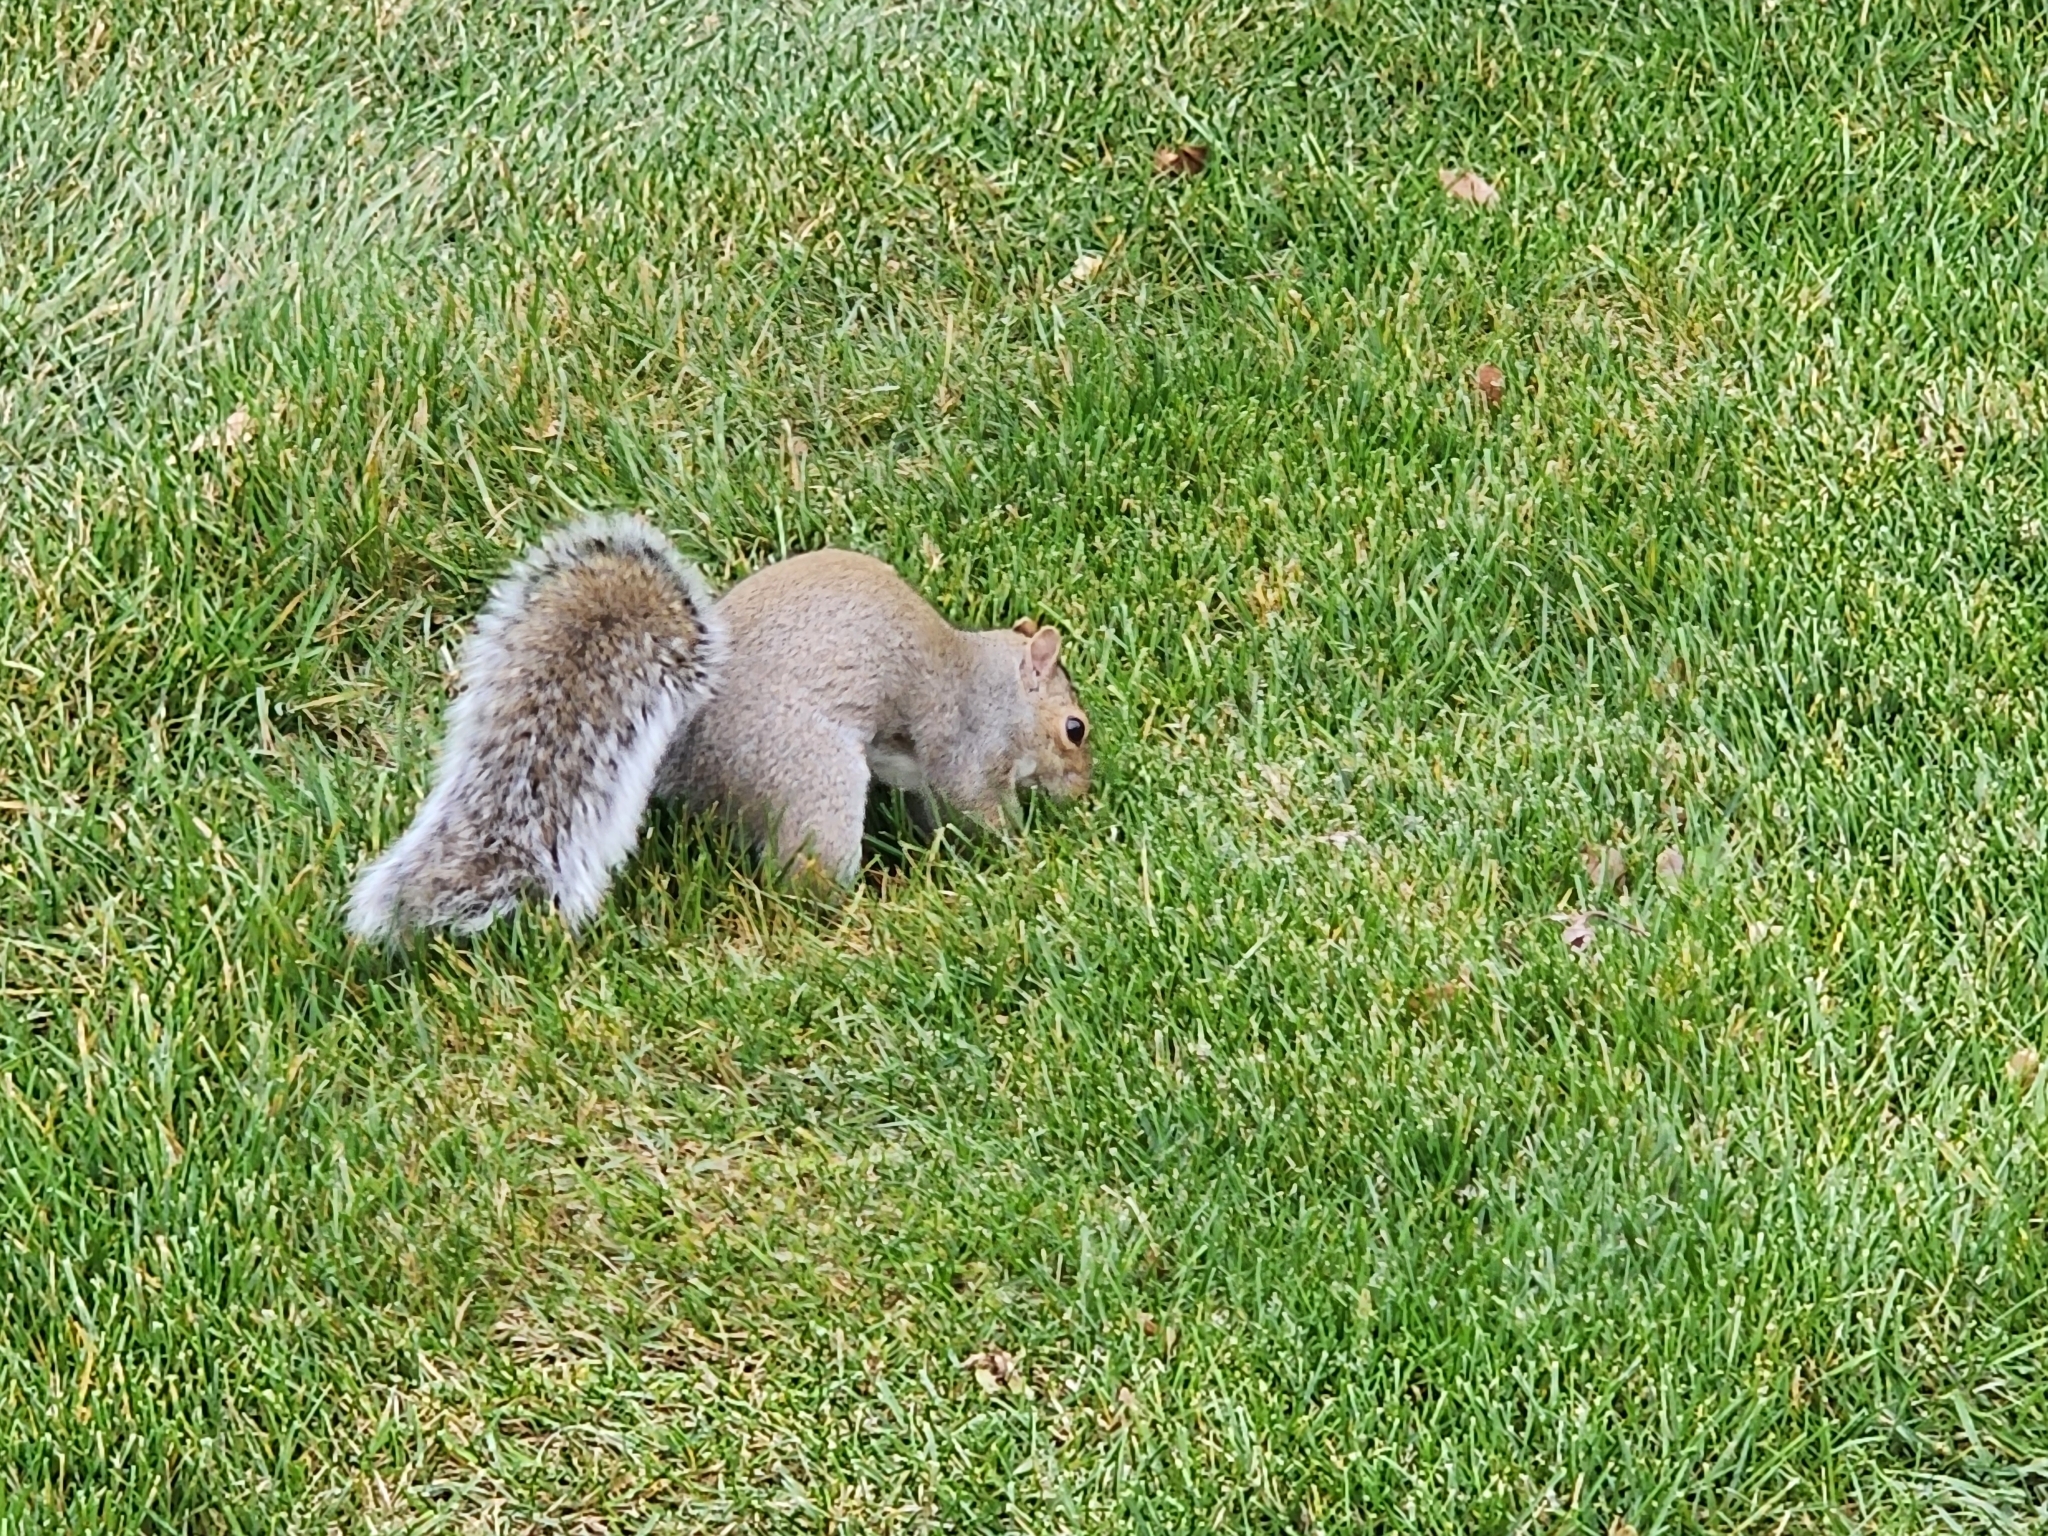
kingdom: Animalia
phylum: Chordata
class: Mammalia
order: Rodentia
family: Sciuridae
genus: Sciurus
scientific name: Sciurus carolinensis
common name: Eastern gray squirrel
